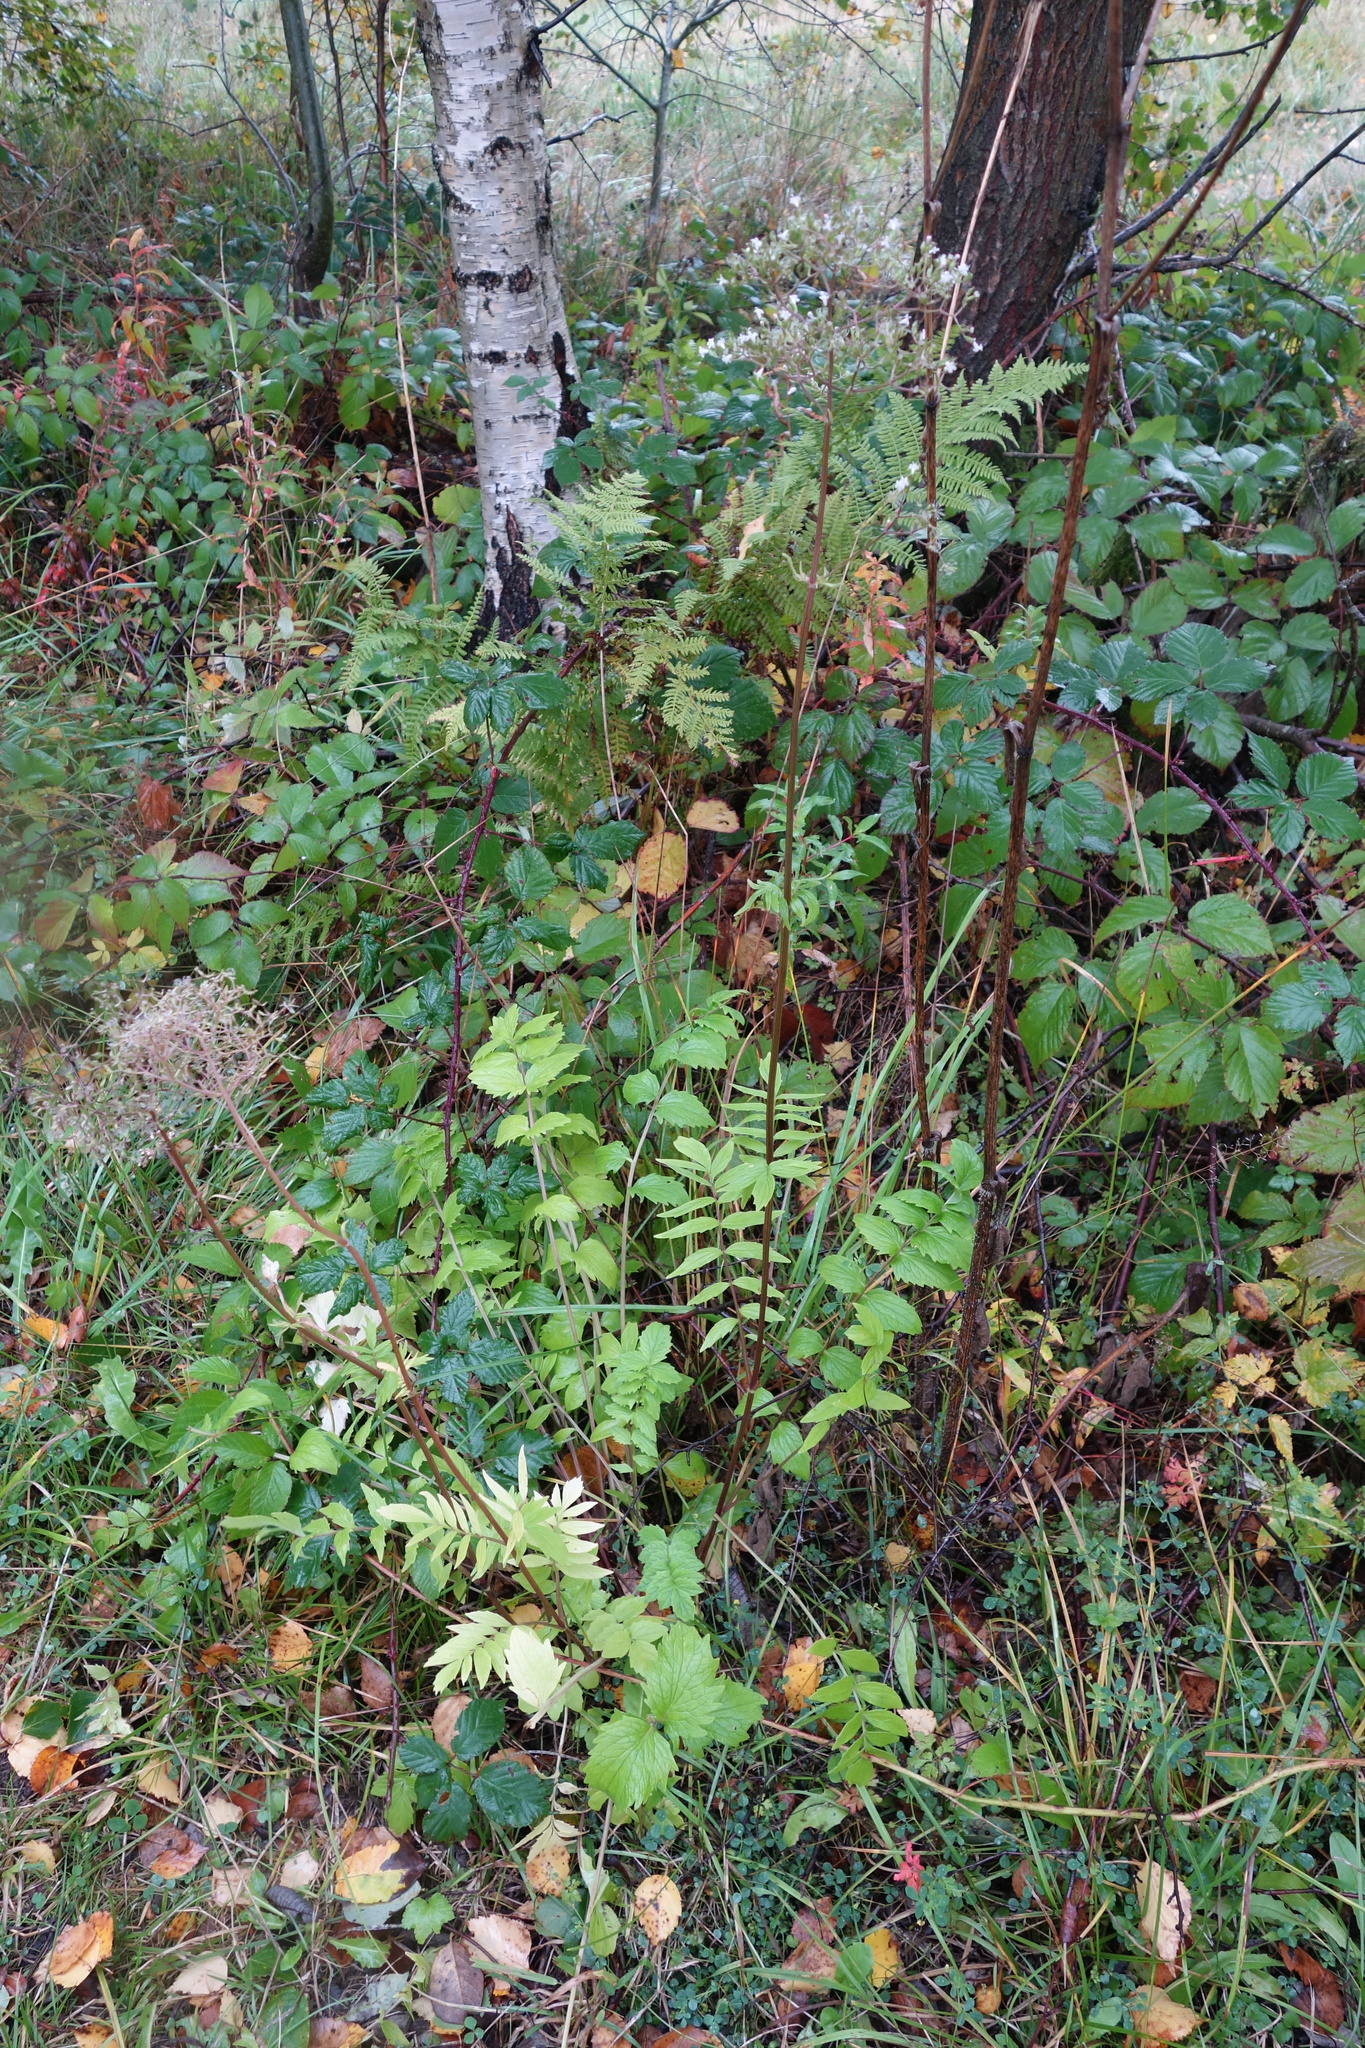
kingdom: Plantae
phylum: Tracheophyta
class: Magnoliopsida
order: Dipsacales
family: Caprifoliaceae
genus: Valeriana
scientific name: Valeriana officinalis
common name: Common valerian
